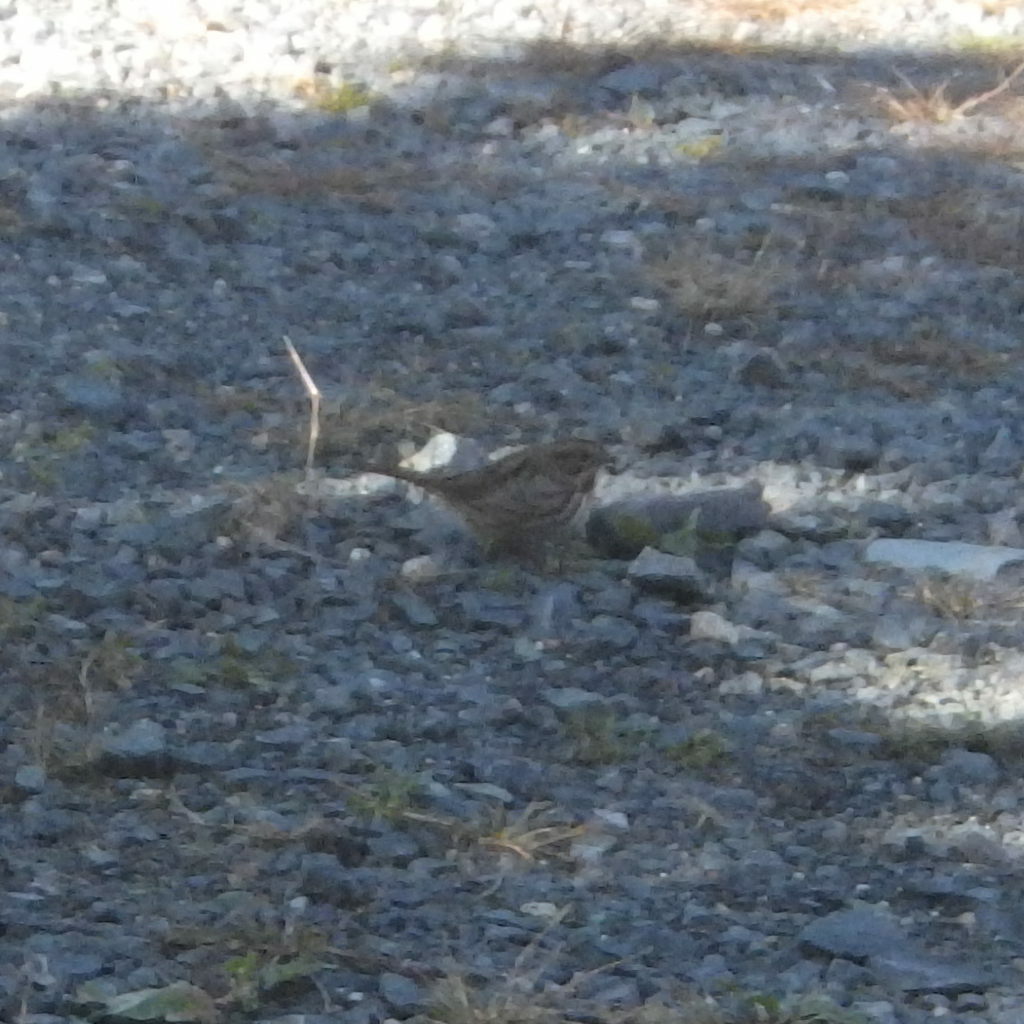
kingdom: Animalia
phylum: Chordata
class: Aves
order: Passeriformes
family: Passerellidae
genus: Melospiza
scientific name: Melospiza melodia
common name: Song sparrow
